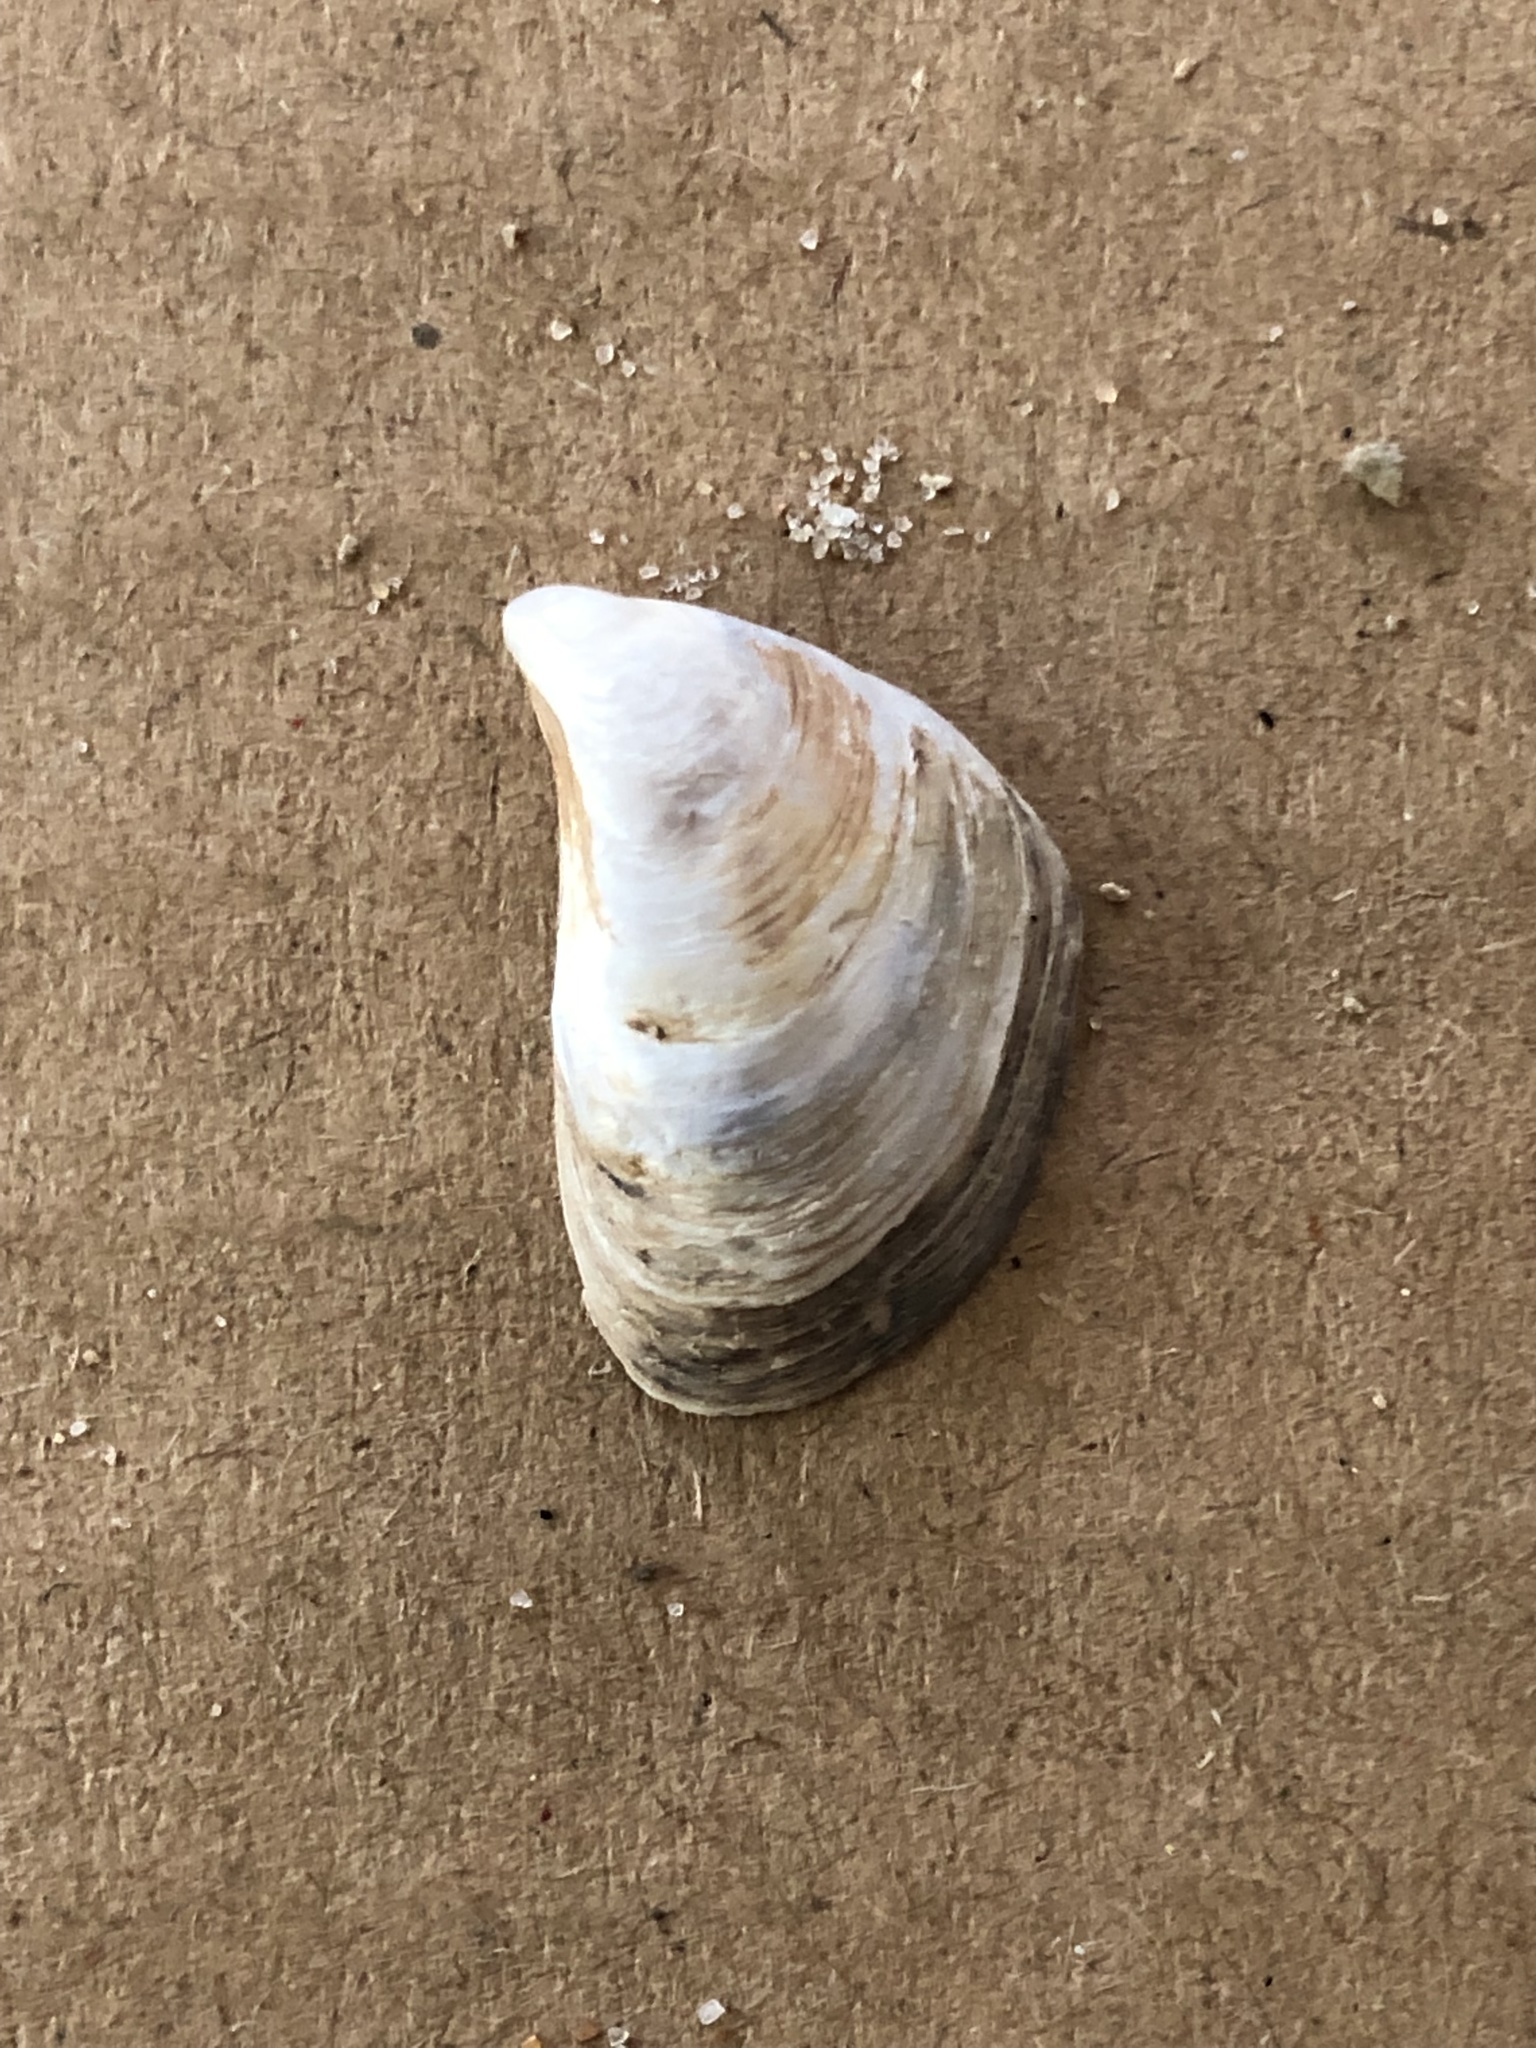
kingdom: Animalia
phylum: Mollusca
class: Bivalvia
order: Myida
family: Dreissenidae
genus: Dreissena
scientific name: Dreissena bugensis
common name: Quagga mussel
